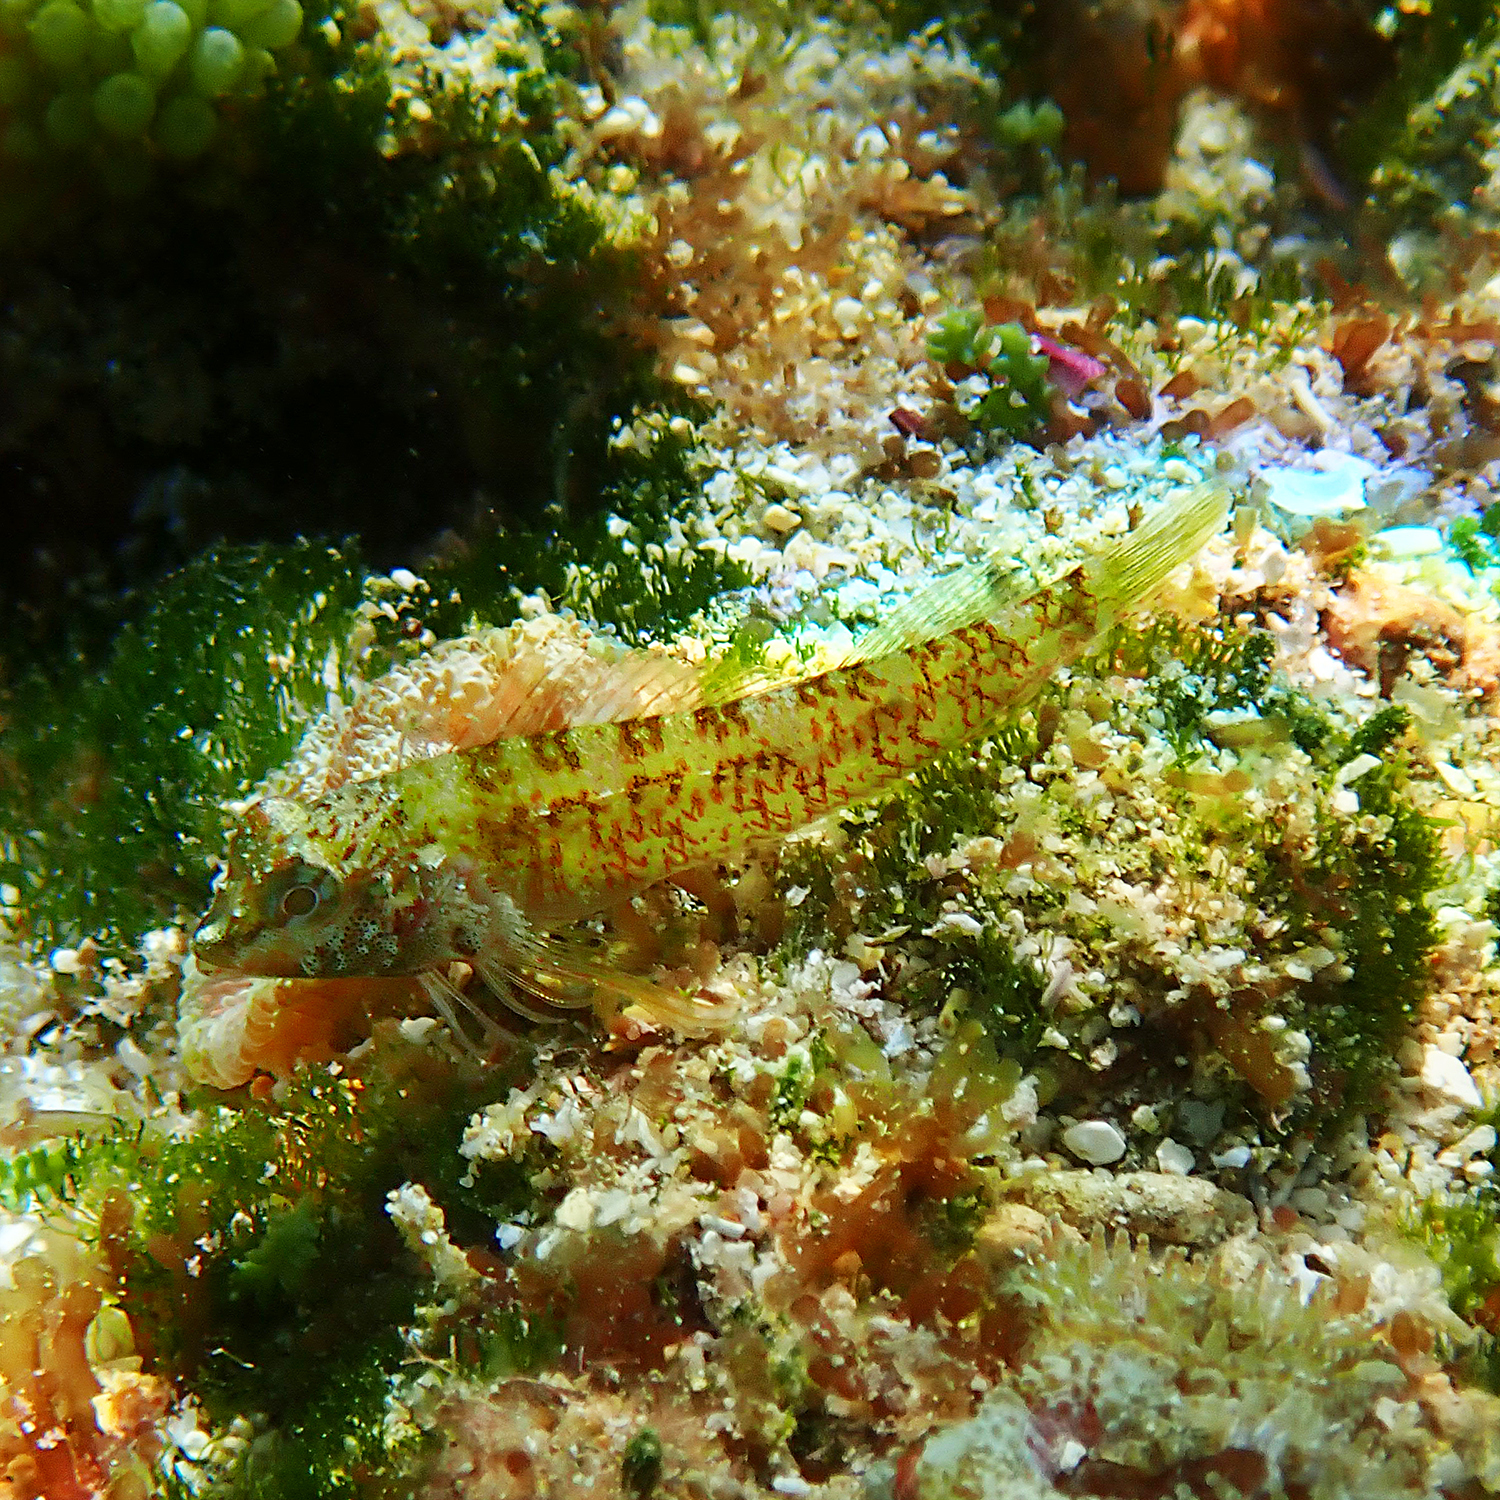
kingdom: Animalia
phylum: Chordata
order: Perciformes
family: Tripterygiidae
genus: Enneapterygius
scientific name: Enneapterygius rufopileus
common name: Lord howe black-head triplefin
